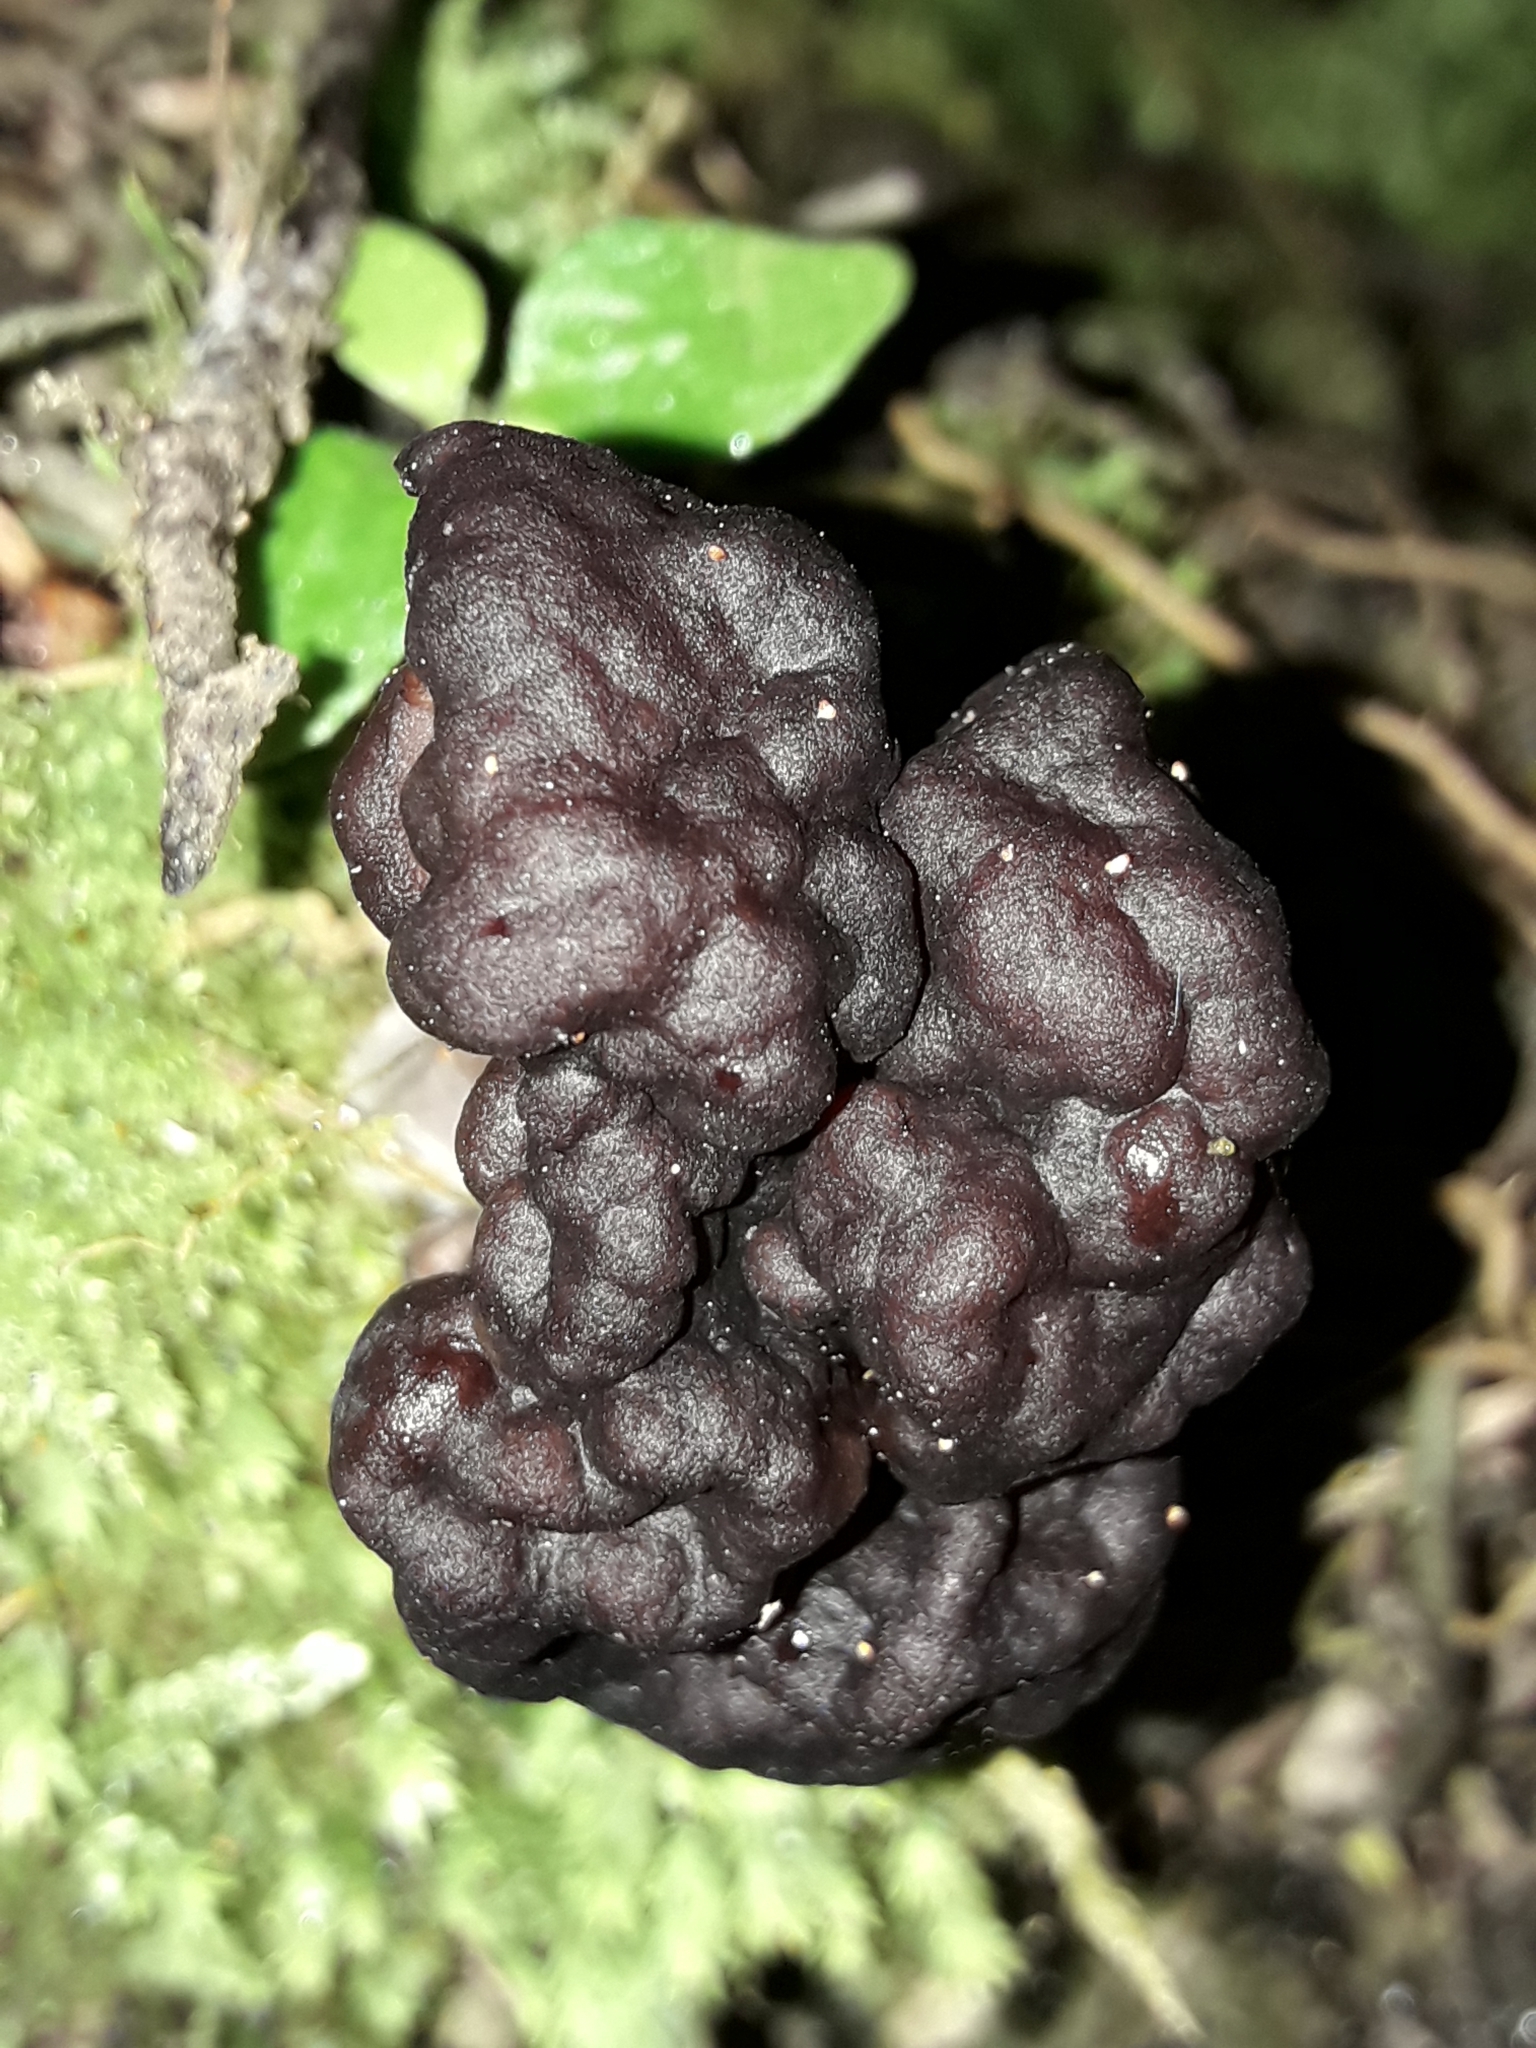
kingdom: Fungi
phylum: Ascomycota
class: Pezizomycetes
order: Pezizales
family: Discinaceae
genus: Gyromitra
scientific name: Gyromitra tasmanica
